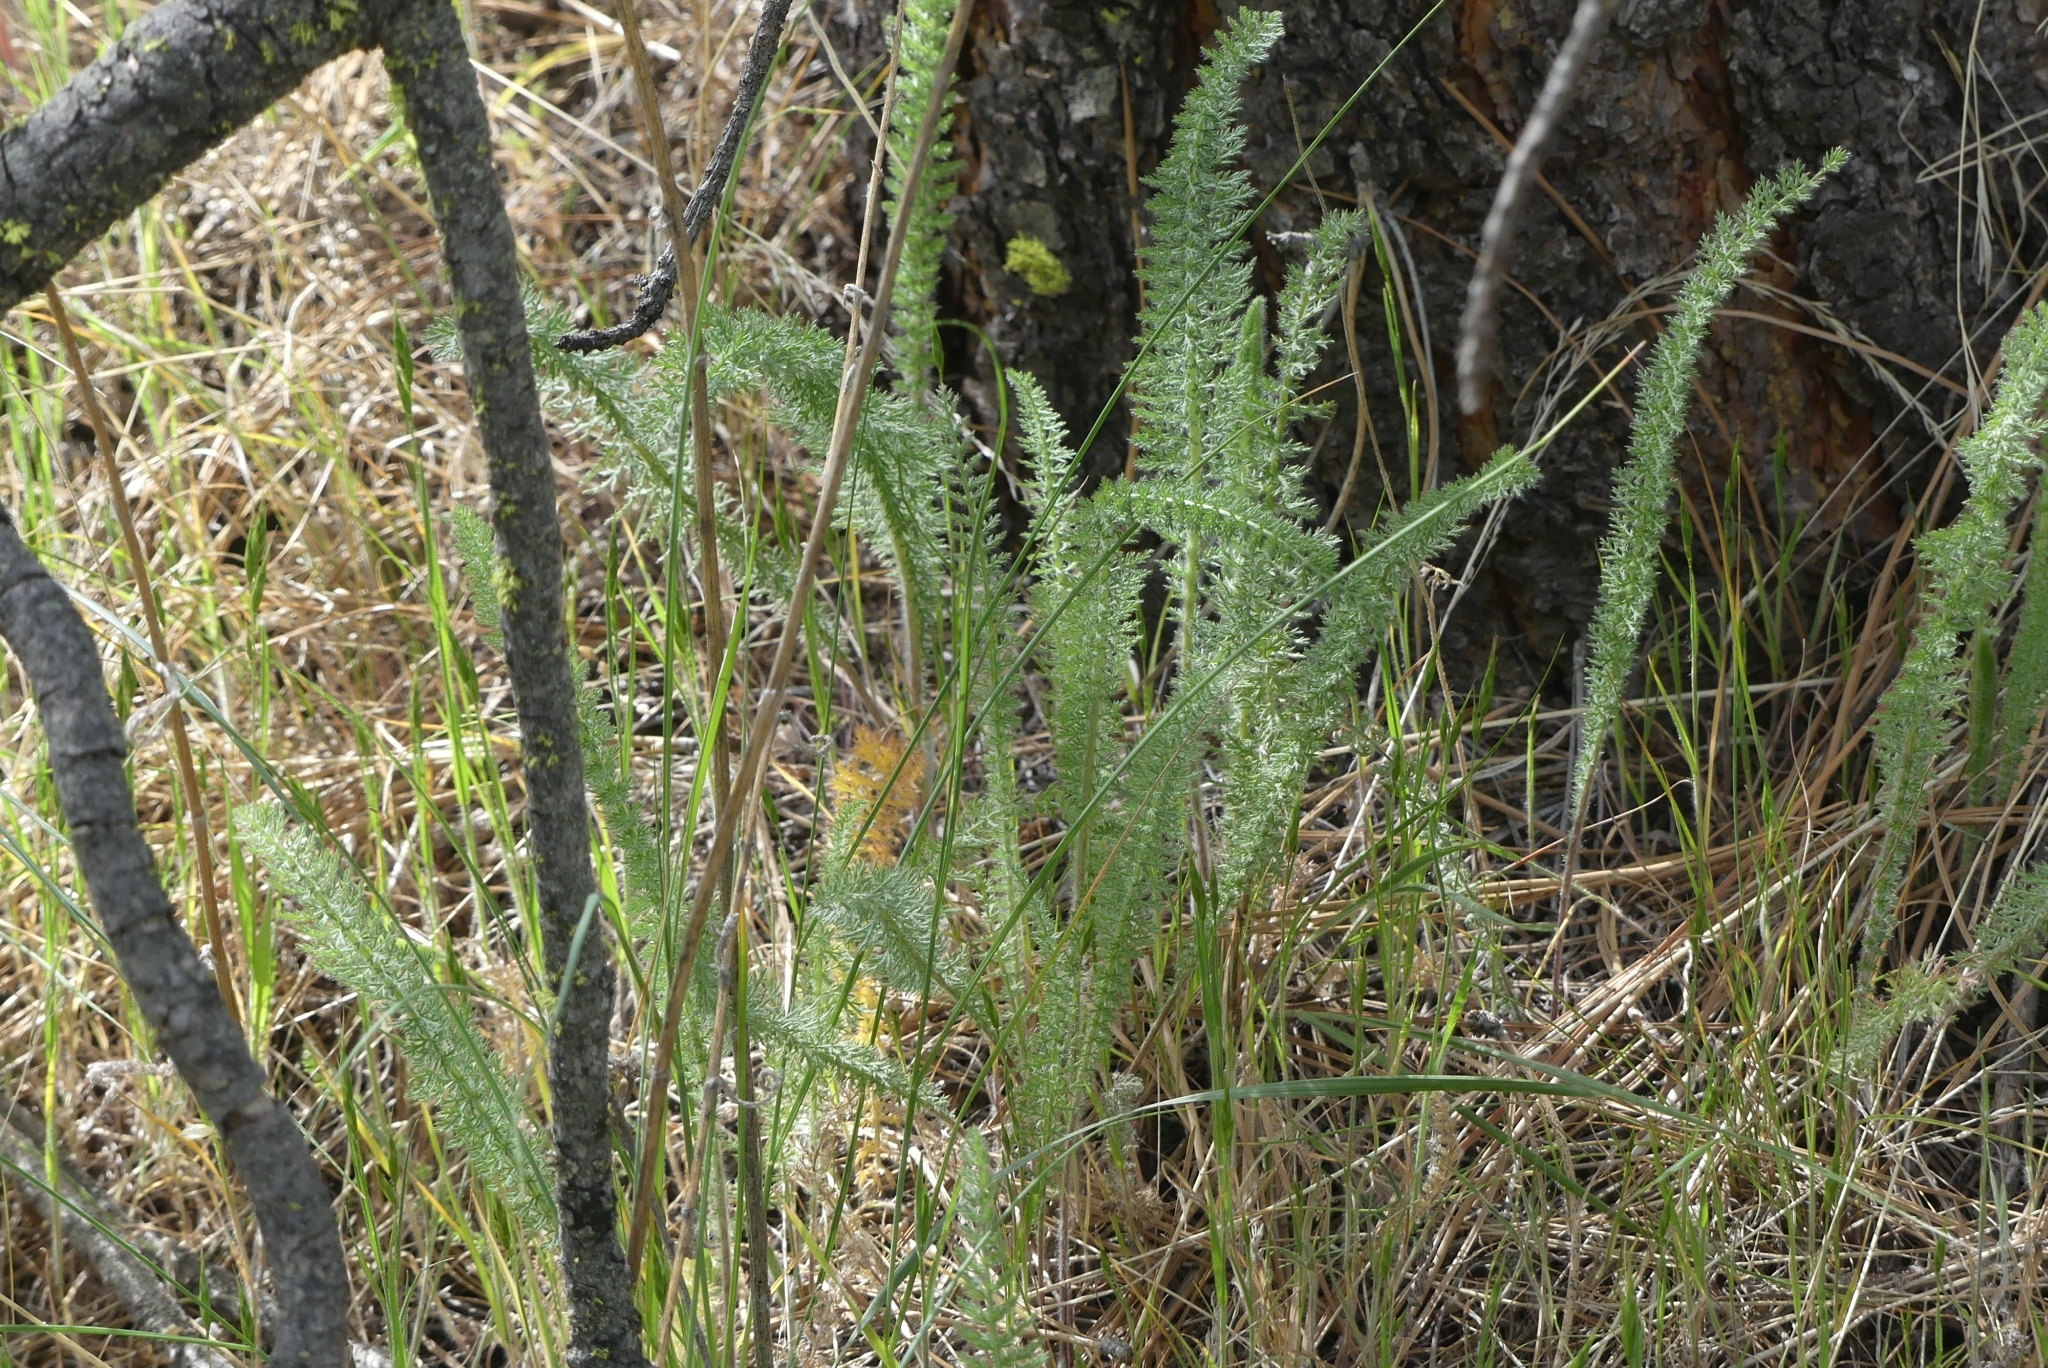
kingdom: Plantae
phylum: Tracheophyta
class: Magnoliopsida
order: Asterales
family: Asteraceae
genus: Achillea
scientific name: Achillea millefolium
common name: Yarrow
